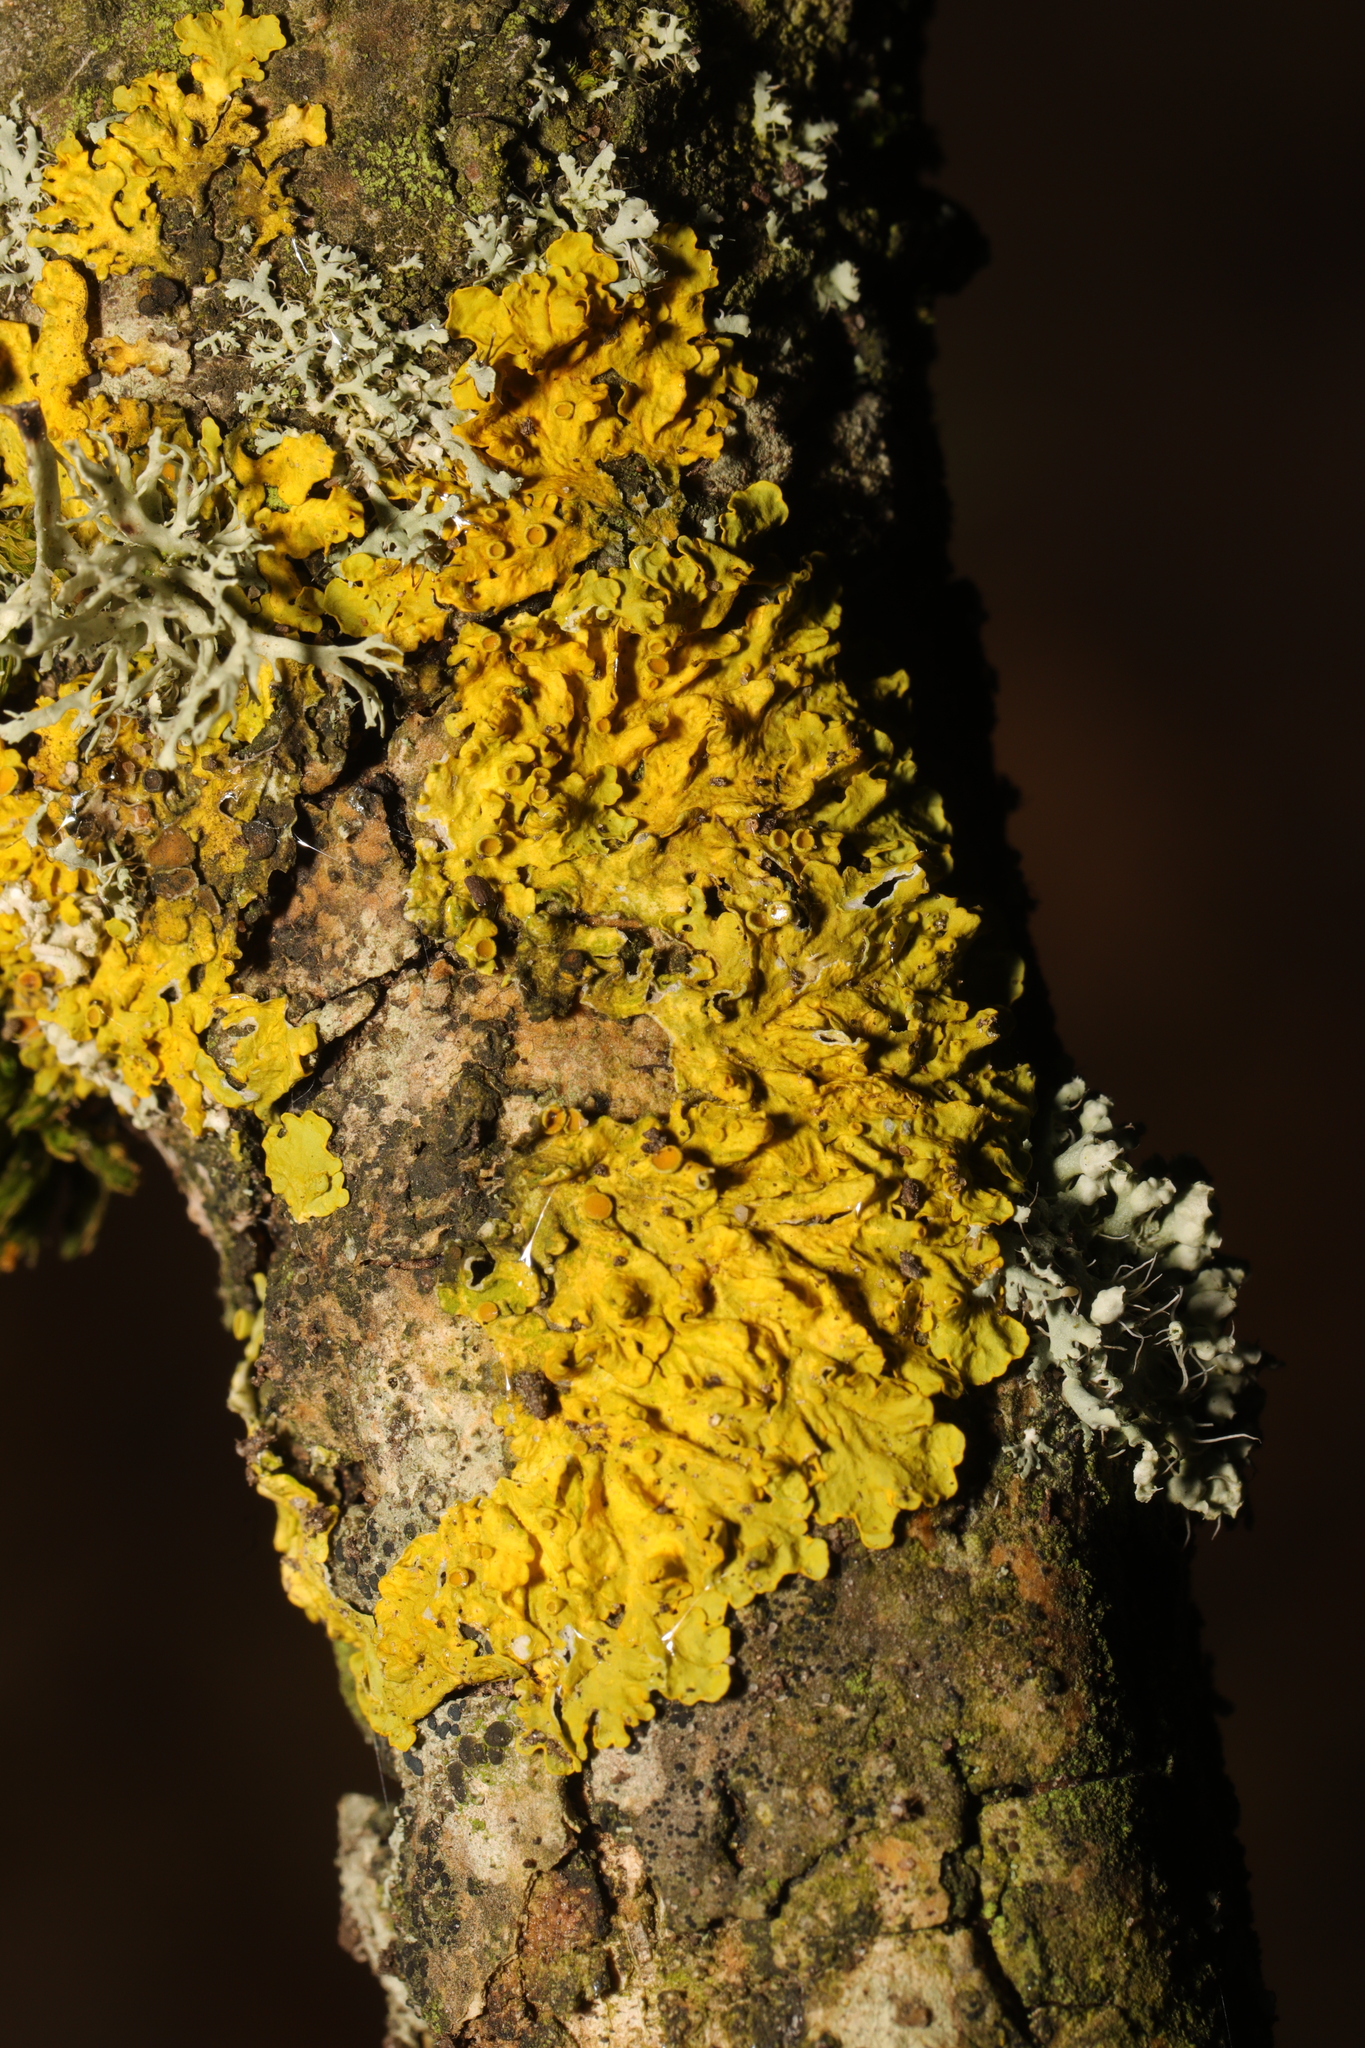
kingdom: Fungi
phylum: Ascomycota
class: Lecanoromycetes
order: Teloschistales
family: Teloschistaceae
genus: Xanthoria
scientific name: Xanthoria parietina
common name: Common orange lichen
